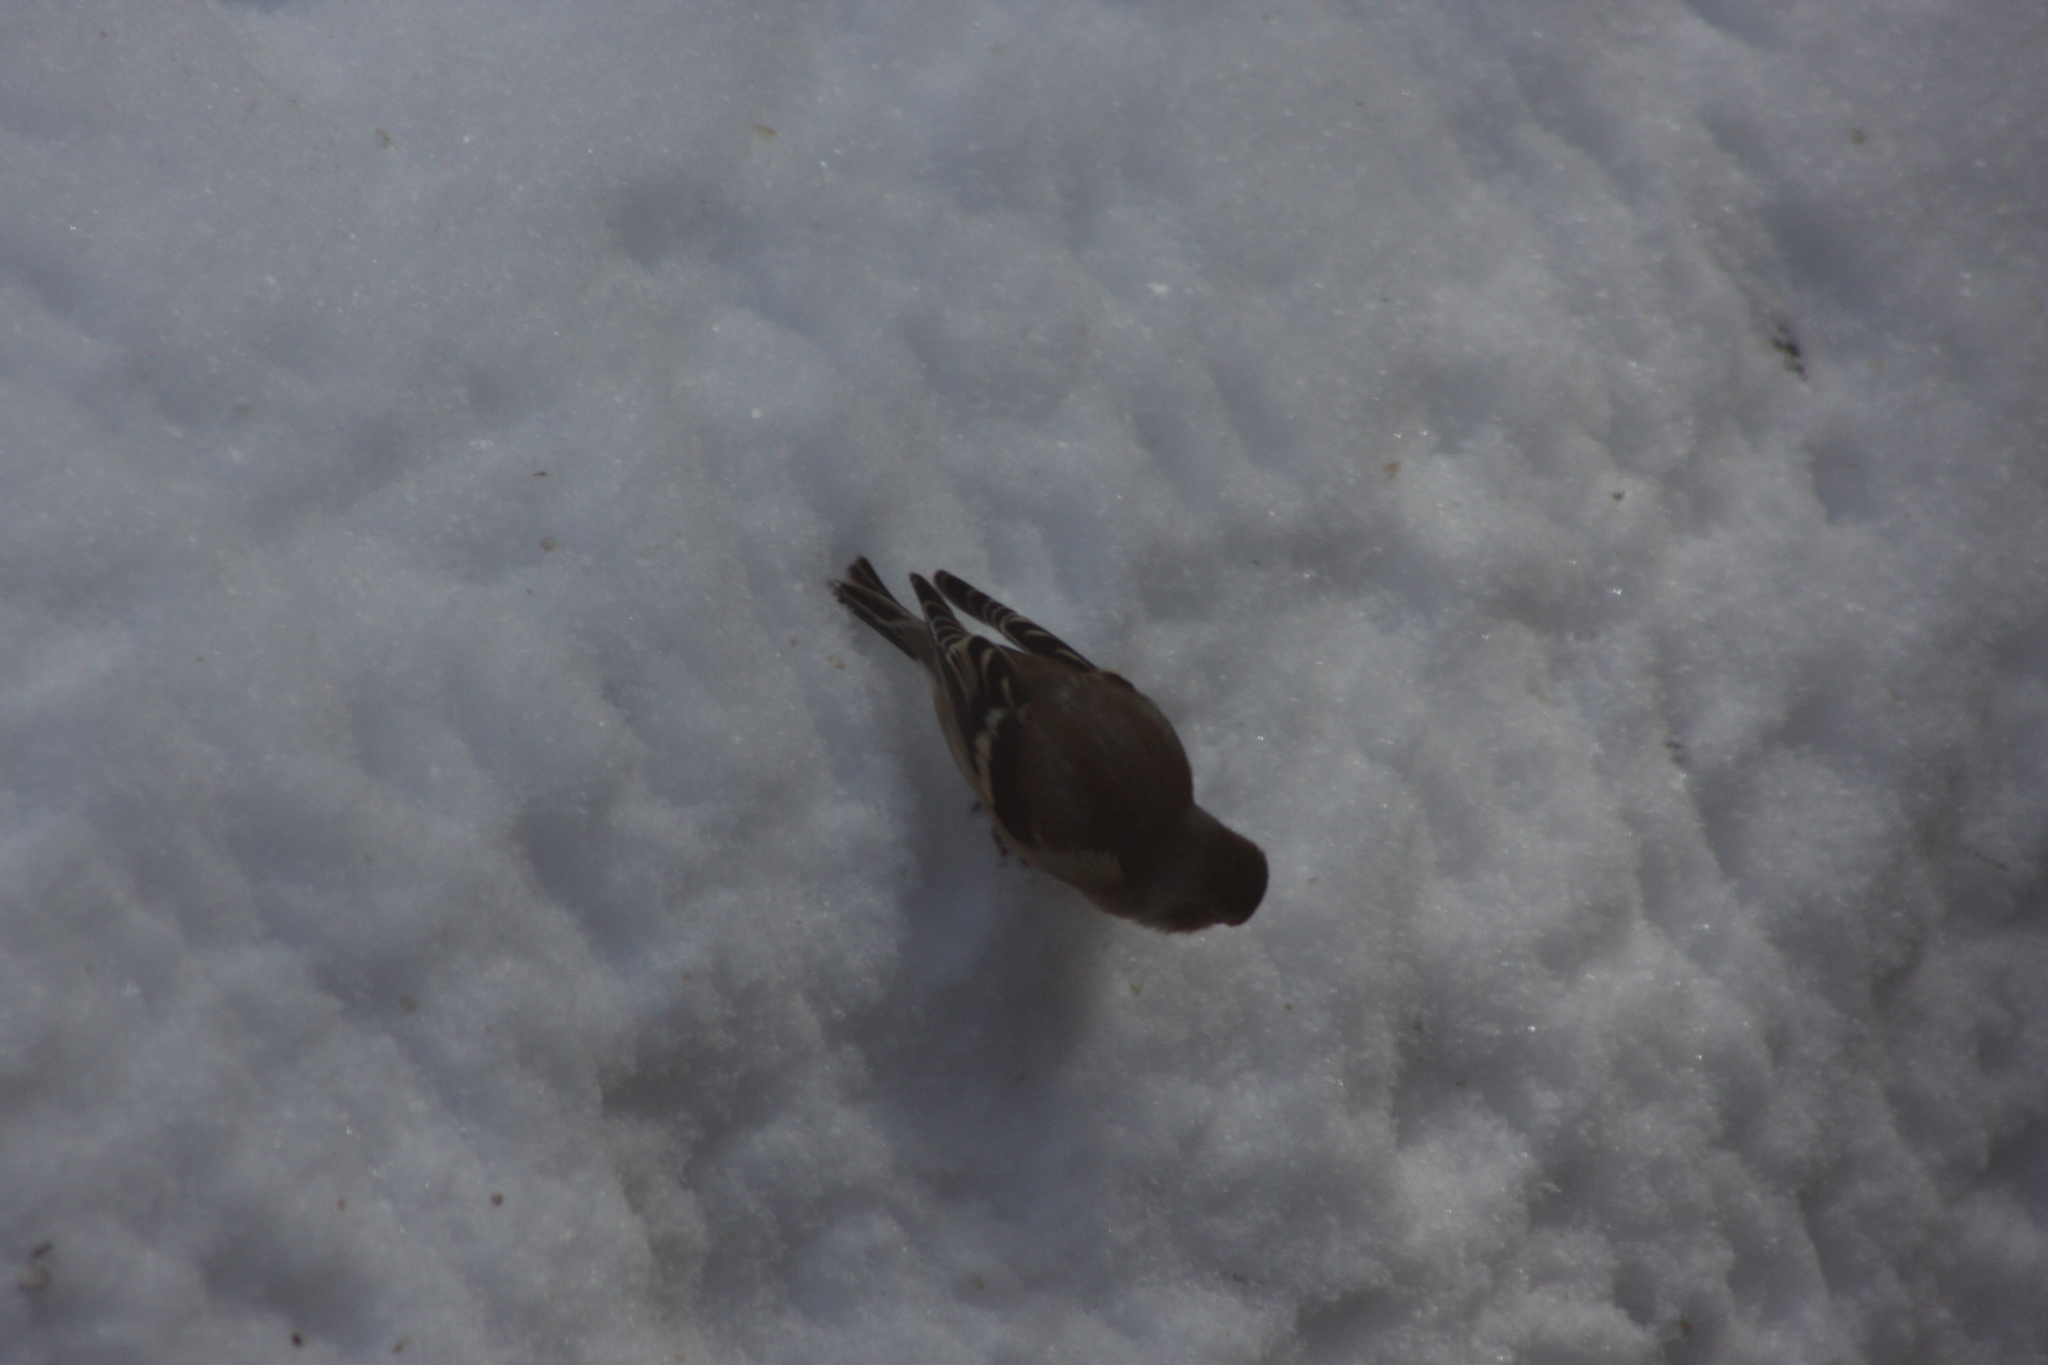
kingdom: Animalia
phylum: Chordata
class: Aves
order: Passeriformes
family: Fringillidae
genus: Spinus
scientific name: Spinus tristis
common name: American goldfinch
